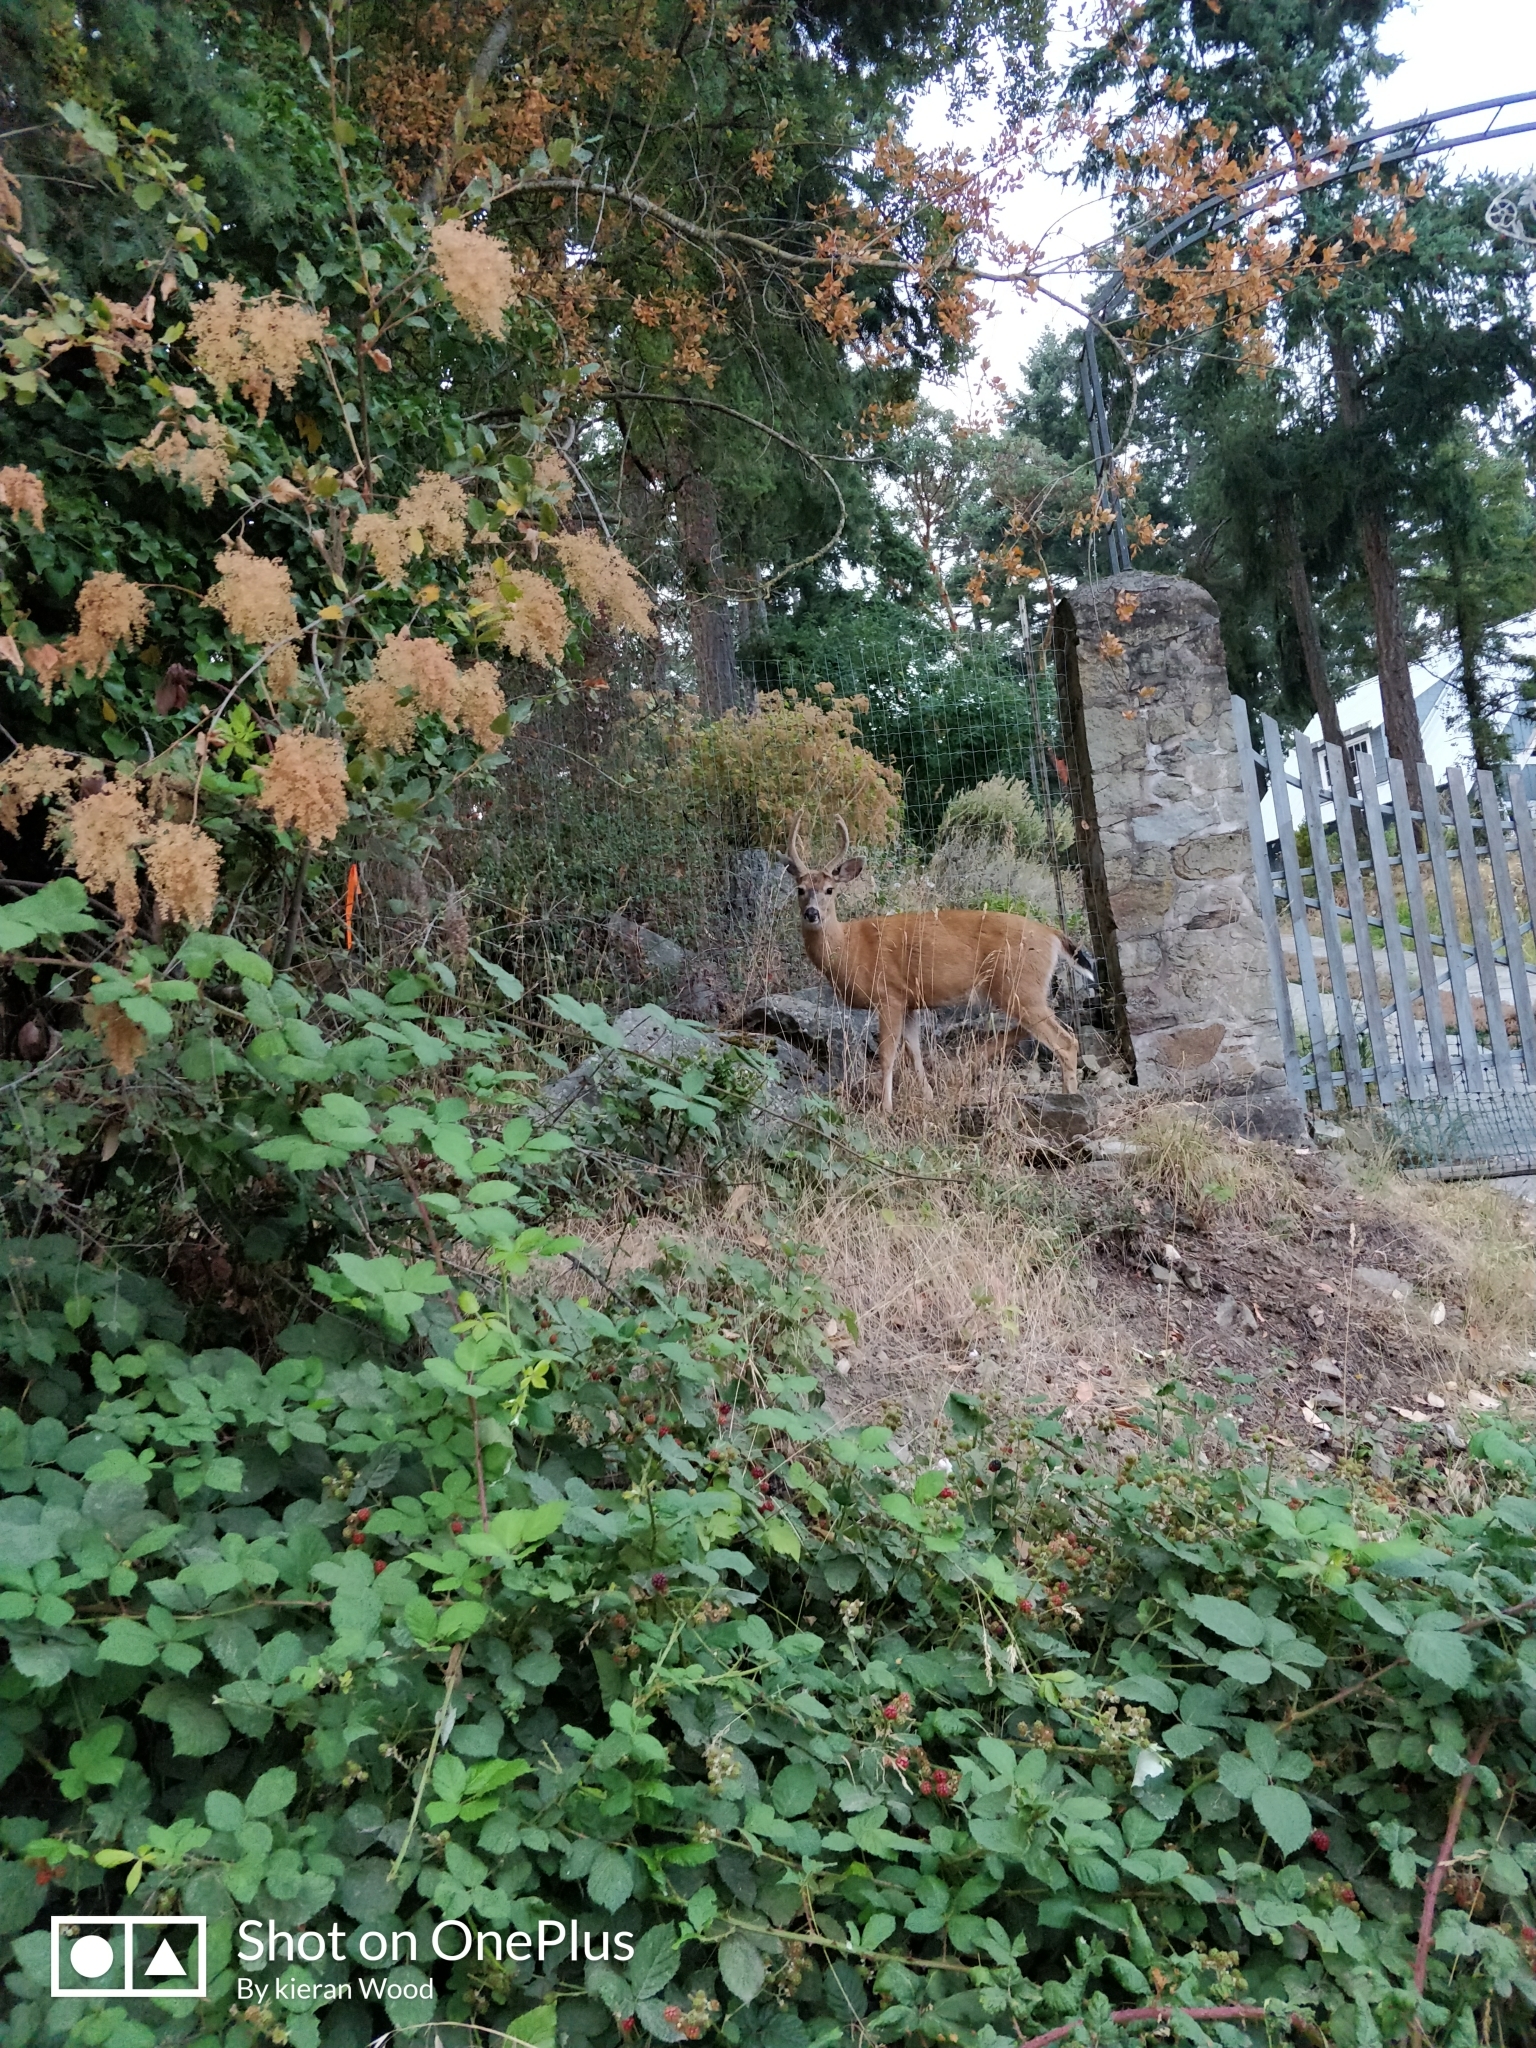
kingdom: Animalia
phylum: Chordata
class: Mammalia
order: Artiodactyla
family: Cervidae
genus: Odocoileus
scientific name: Odocoileus hemionus
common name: Mule deer
